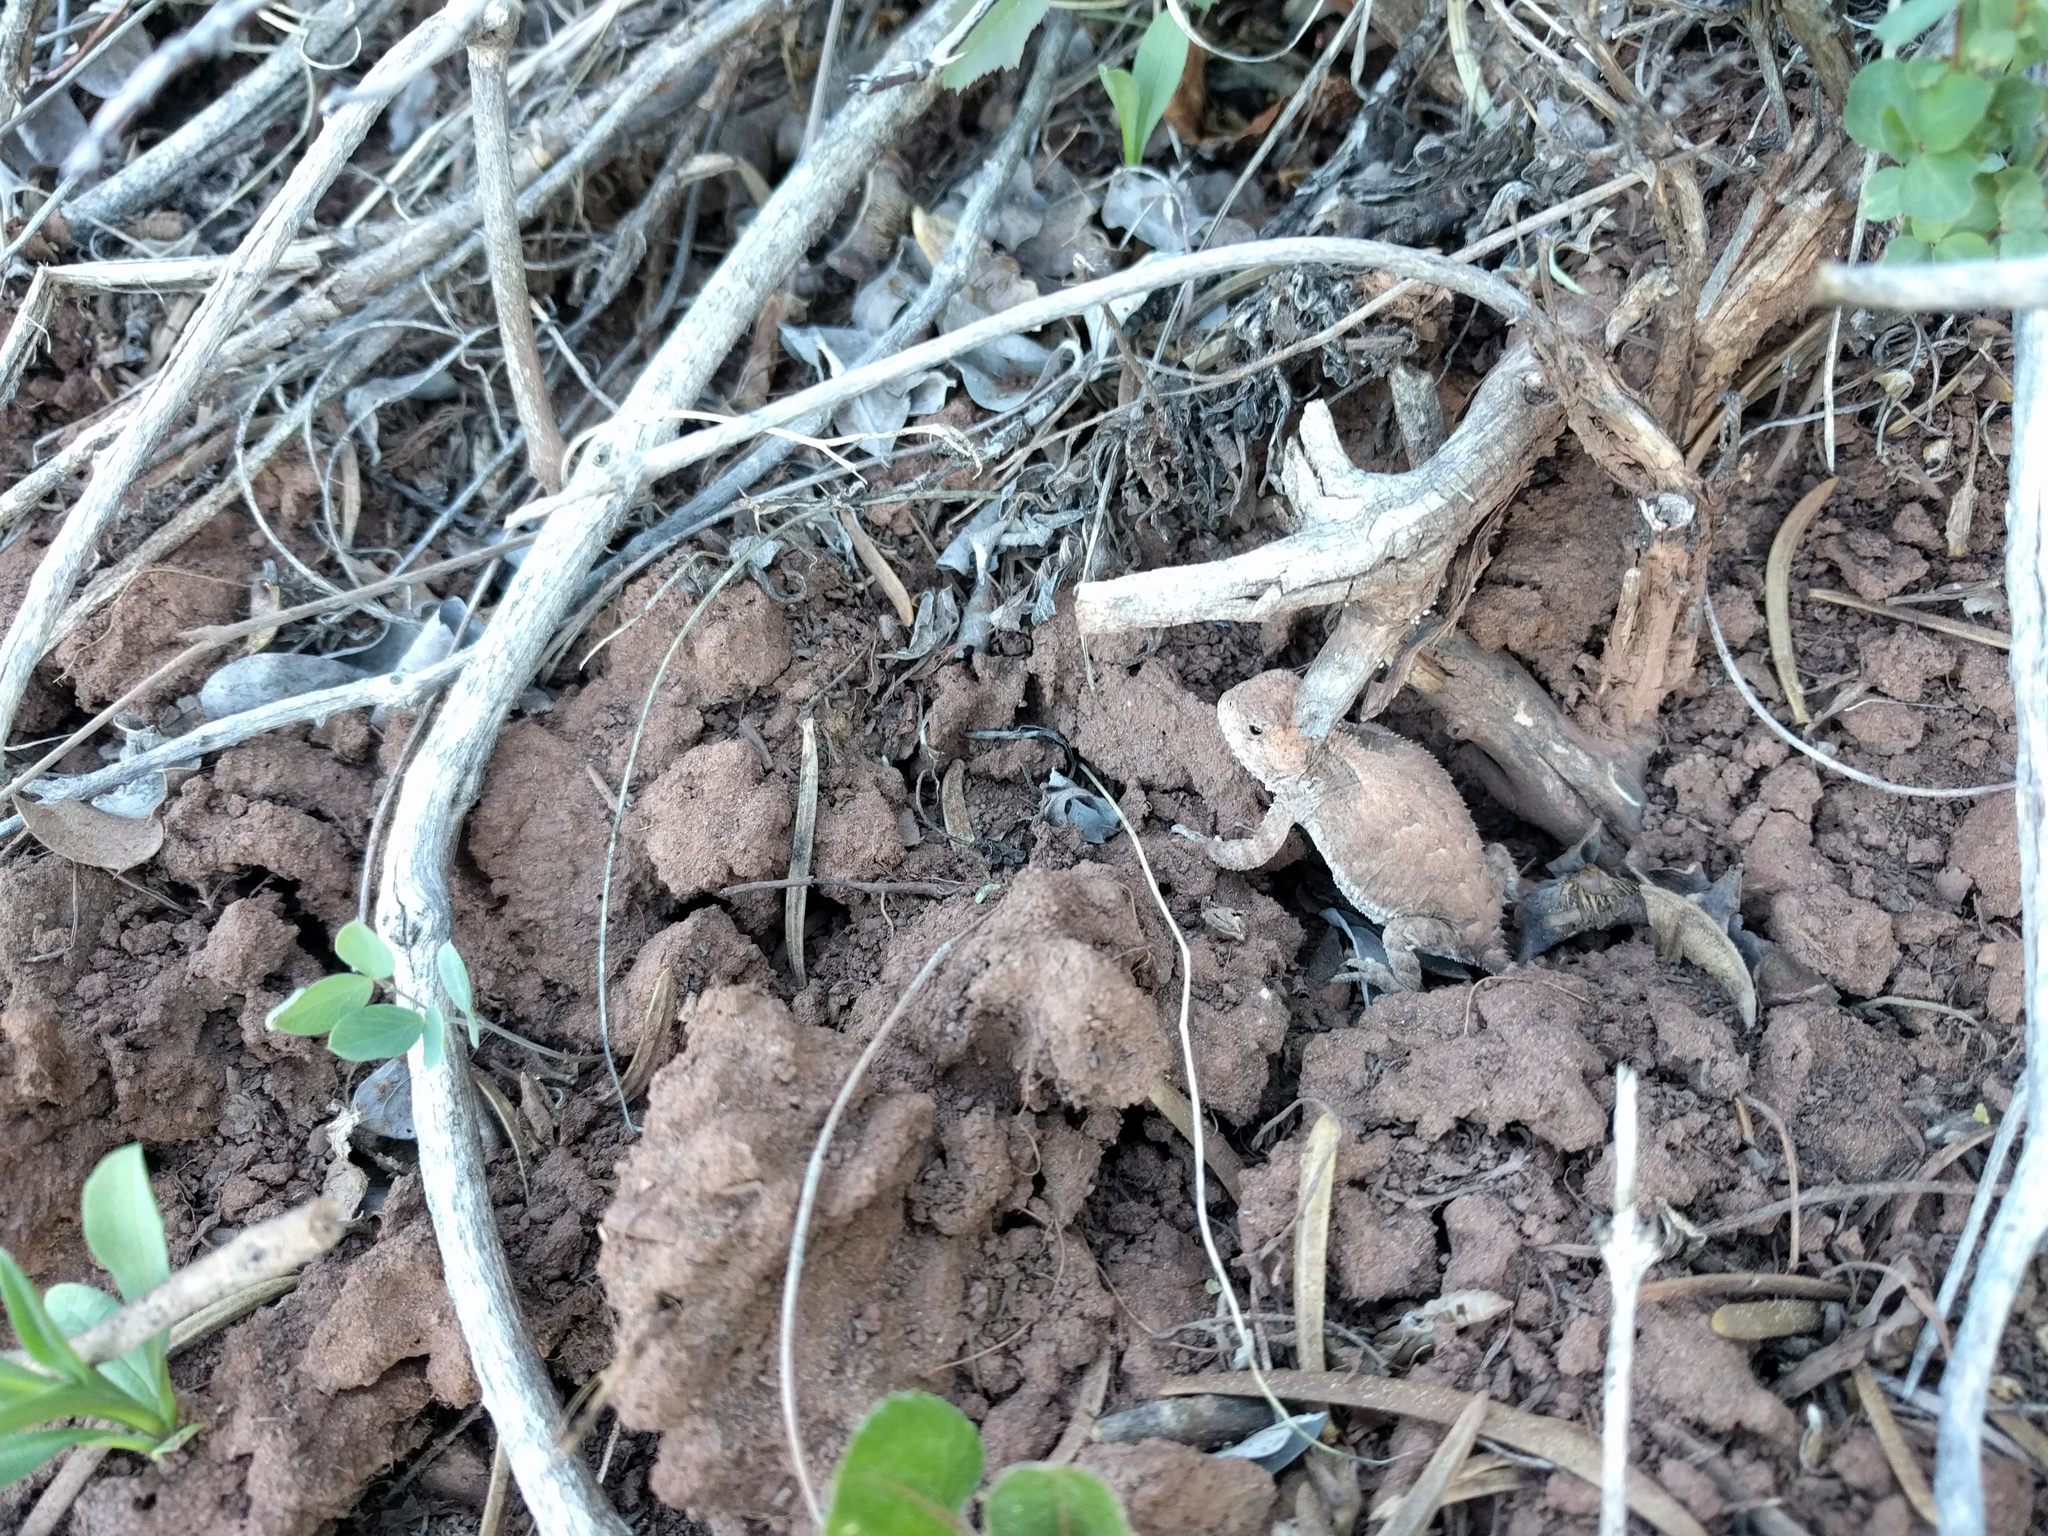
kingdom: Animalia
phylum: Chordata
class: Squamata
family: Phrynosomatidae
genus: Phrynosoma
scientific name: Phrynosoma hernandesi
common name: Greater short-horned lizard
